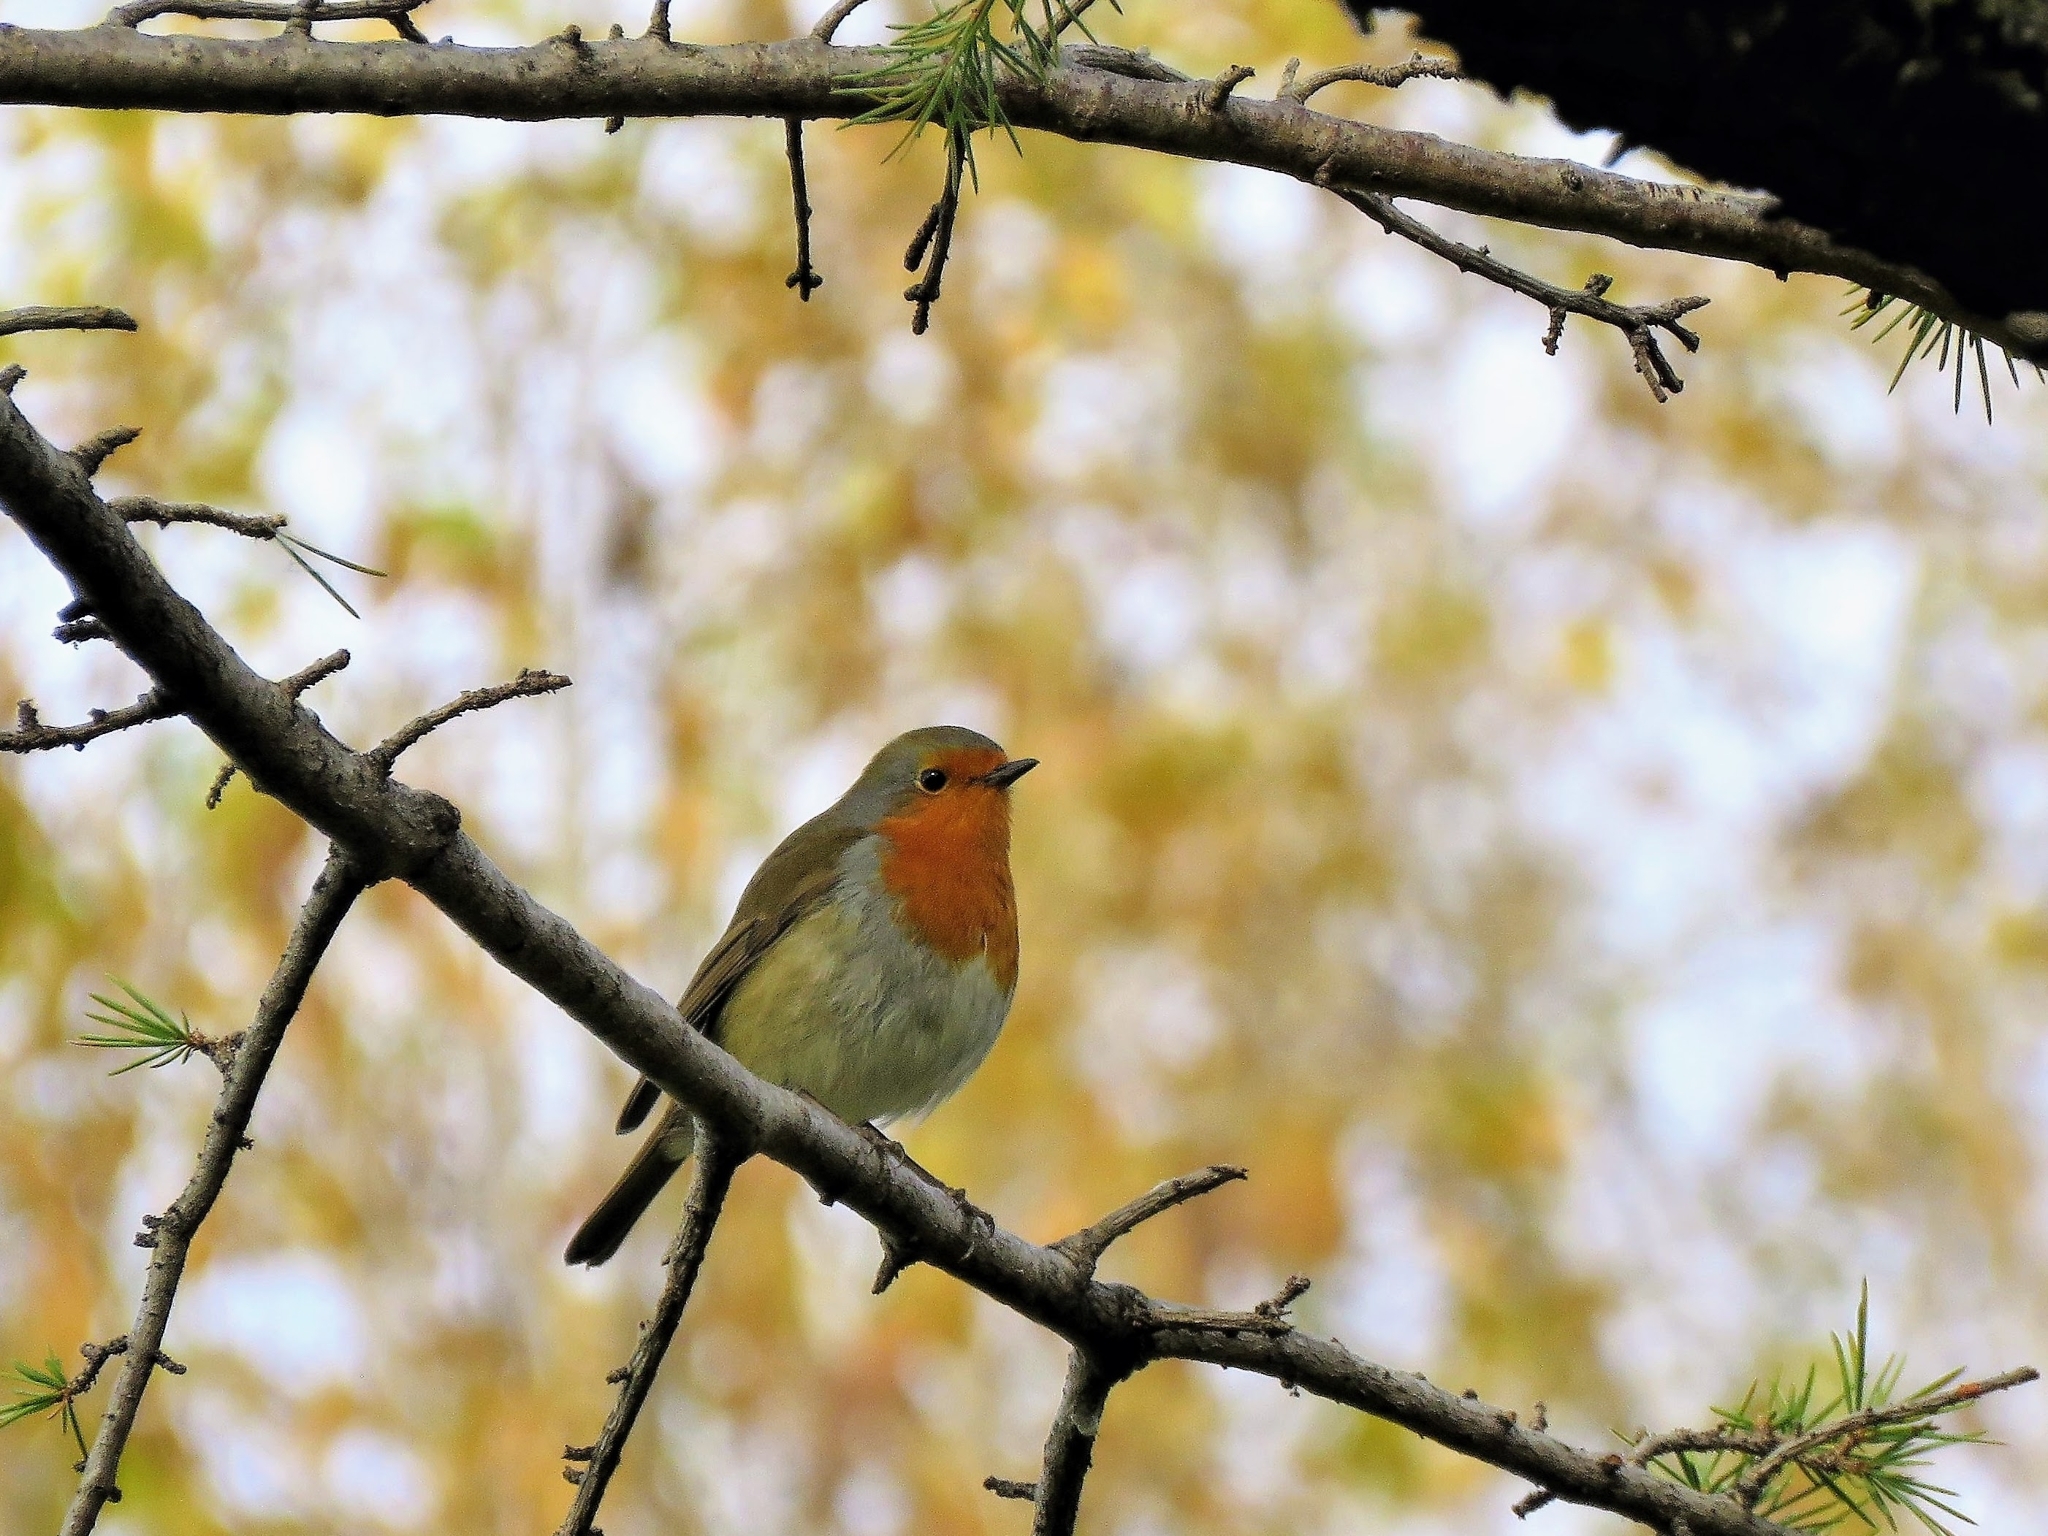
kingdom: Animalia
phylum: Chordata
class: Aves
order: Passeriformes
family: Muscicapidae
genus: Erithacus
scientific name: Erithacus rubecula
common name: European robin
